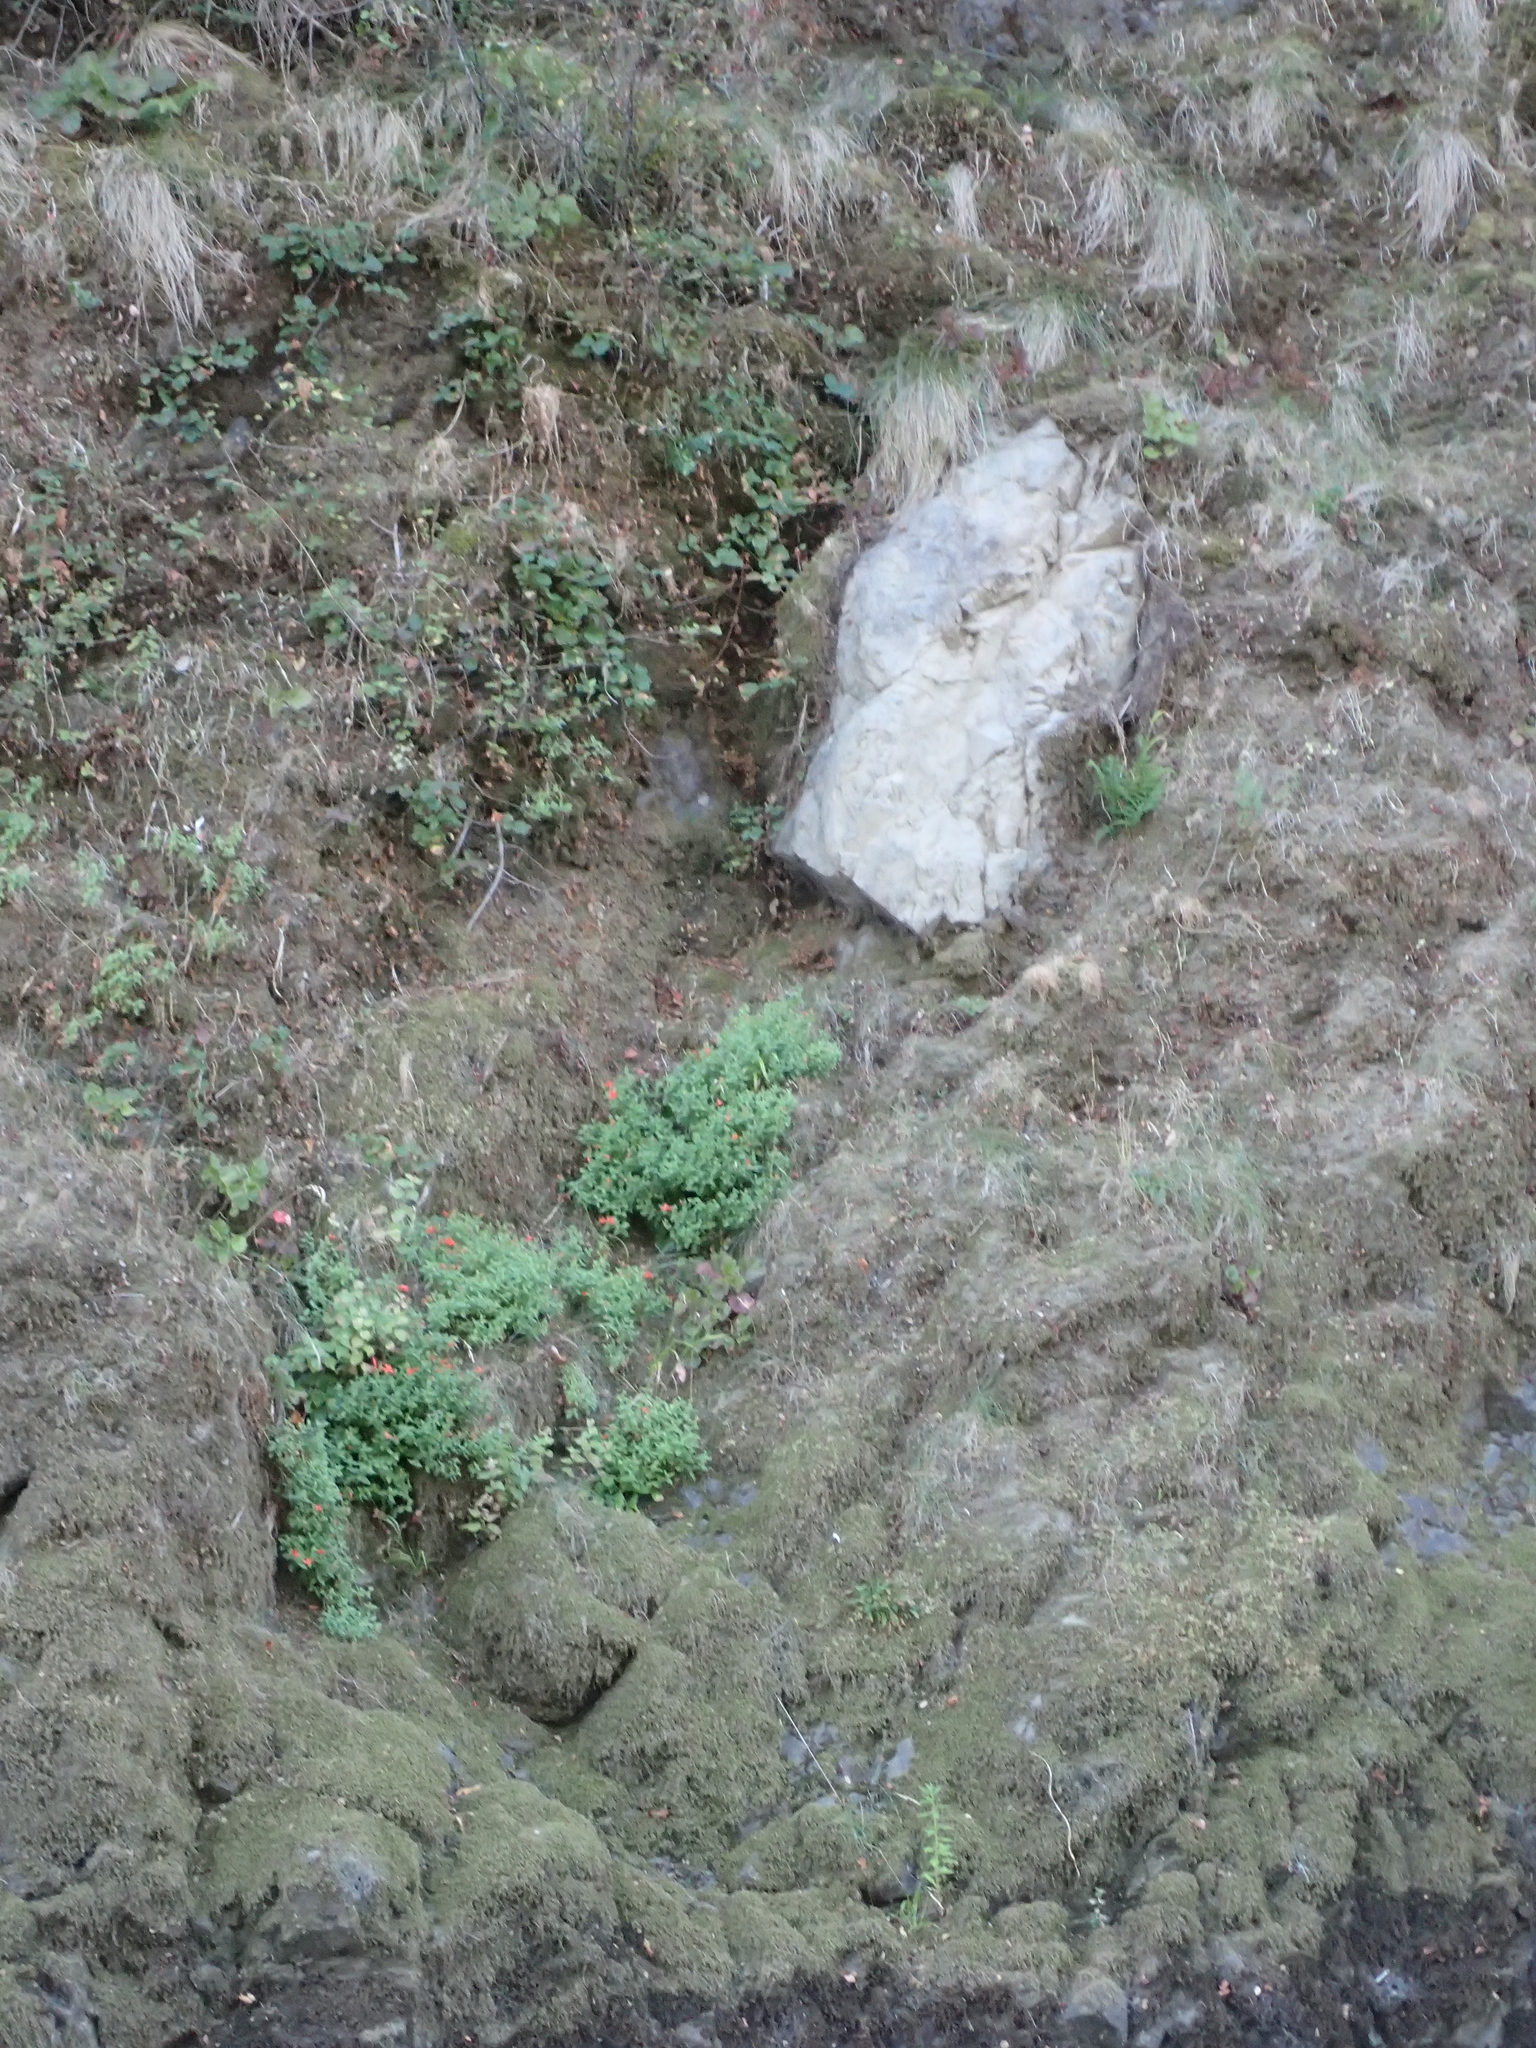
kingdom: Plantae
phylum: Tracheophyta
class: Magnoliopsida
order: Lamiales
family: Phrymaceae
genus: Erythranthe
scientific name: Erythranthe cardinalis
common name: Scarlet monkey-flower
